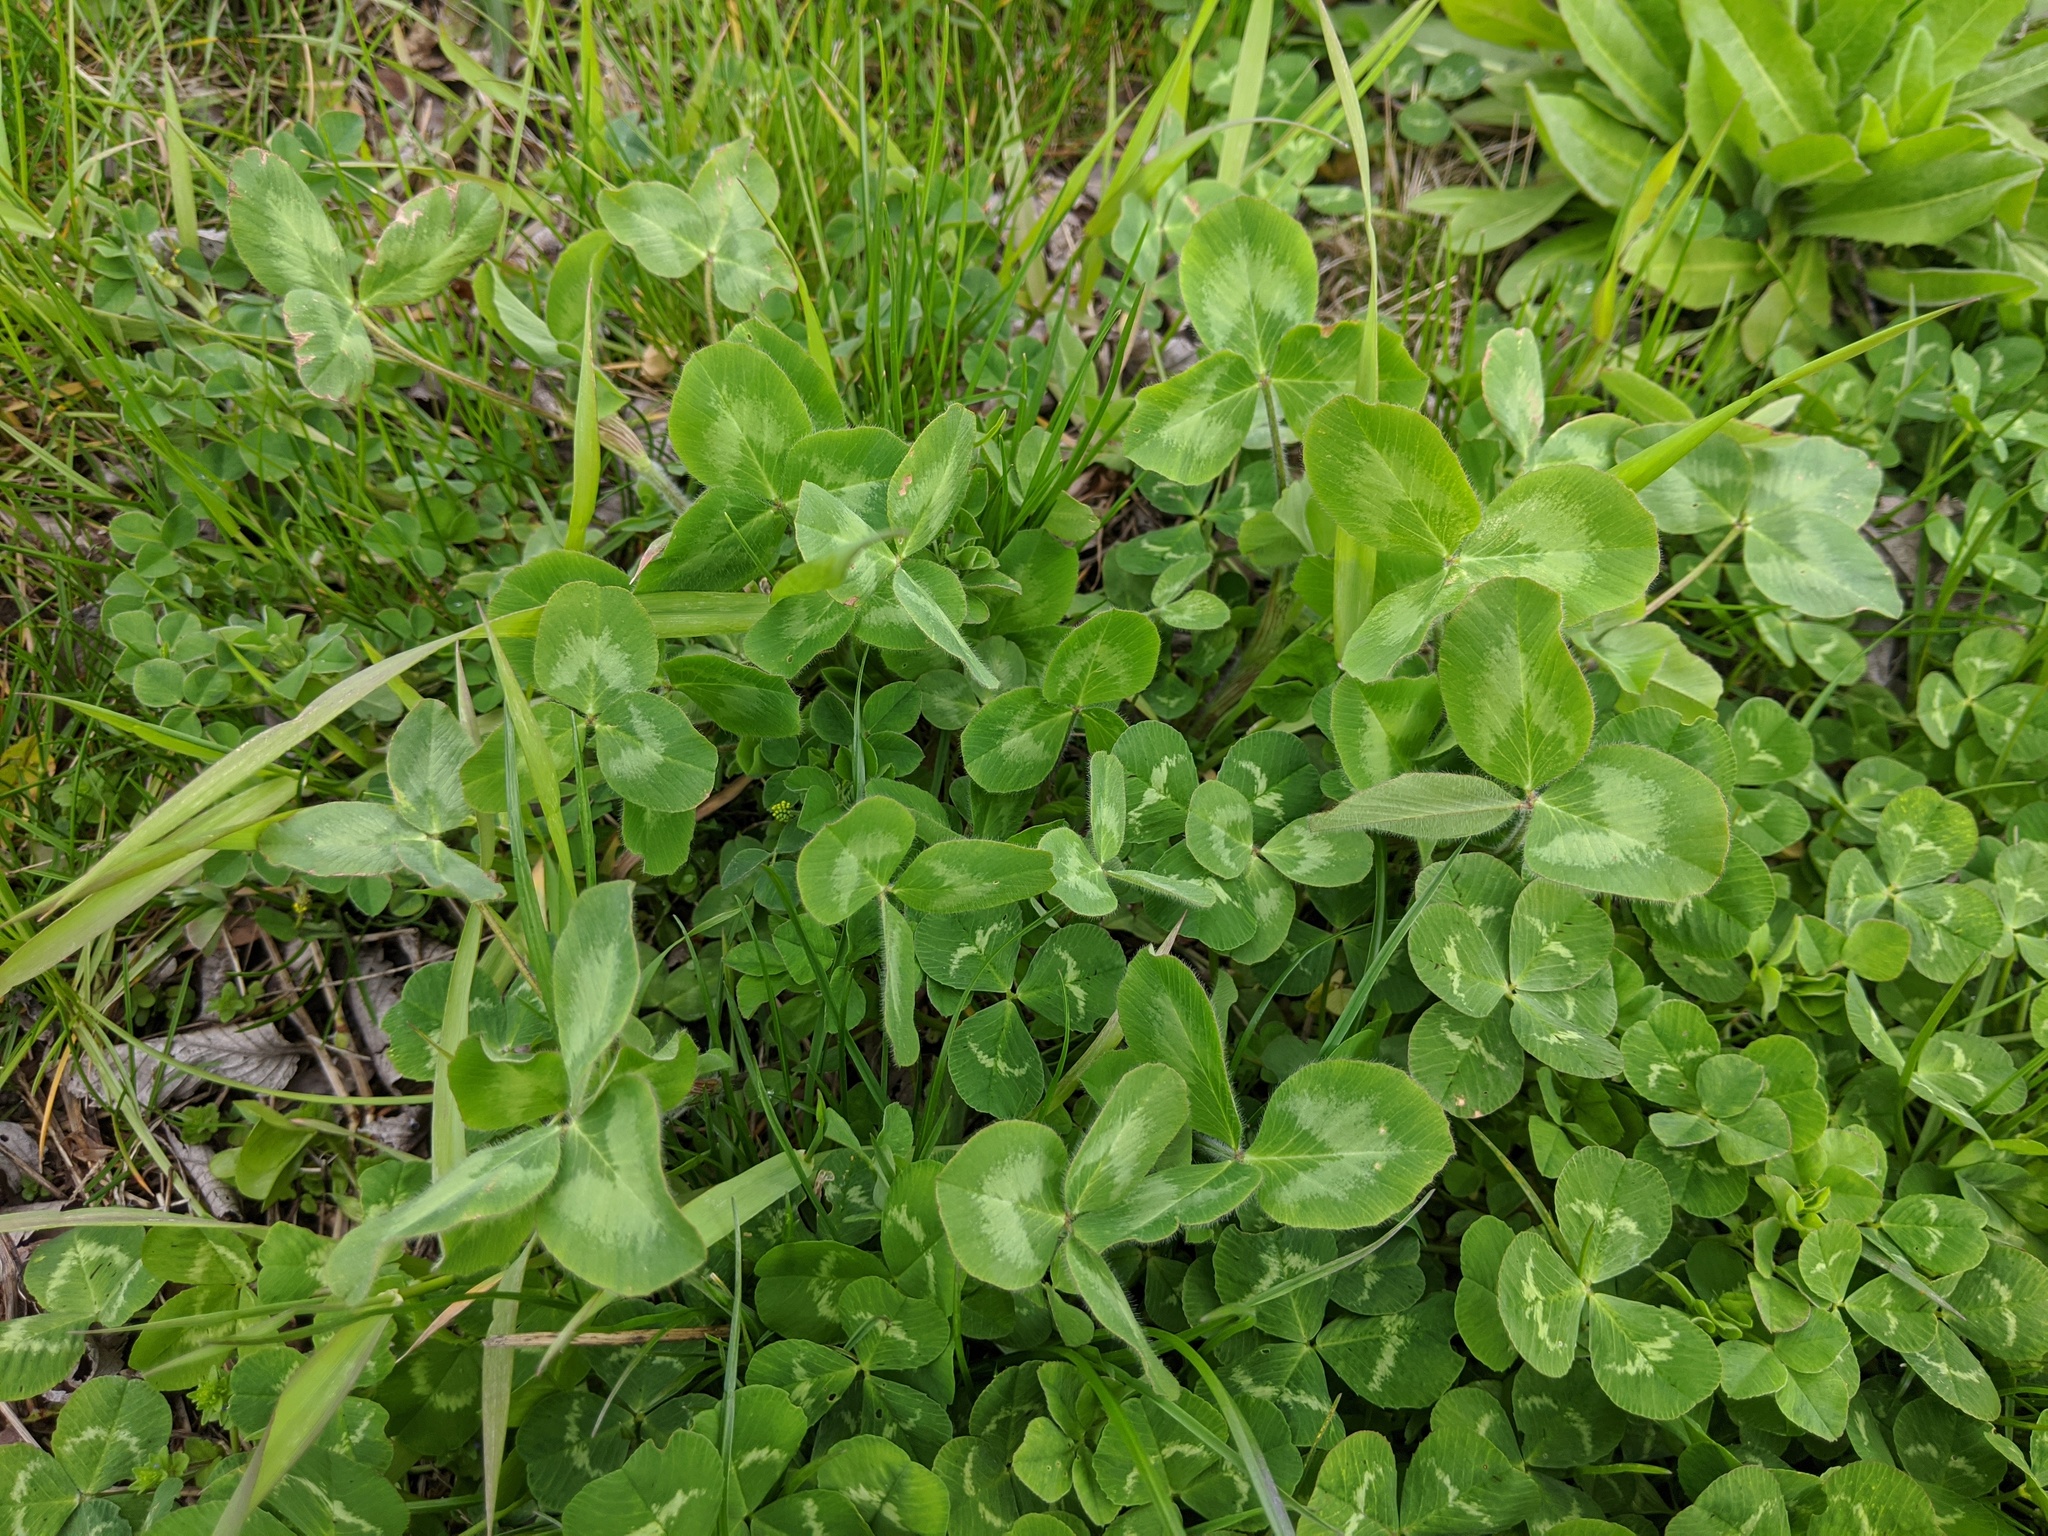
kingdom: Plantae
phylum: Tracheophyta
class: Magnoliopsida
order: Fabales
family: Fabaceae
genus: Trifolium
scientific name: Trifolium pratense
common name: Red clover
